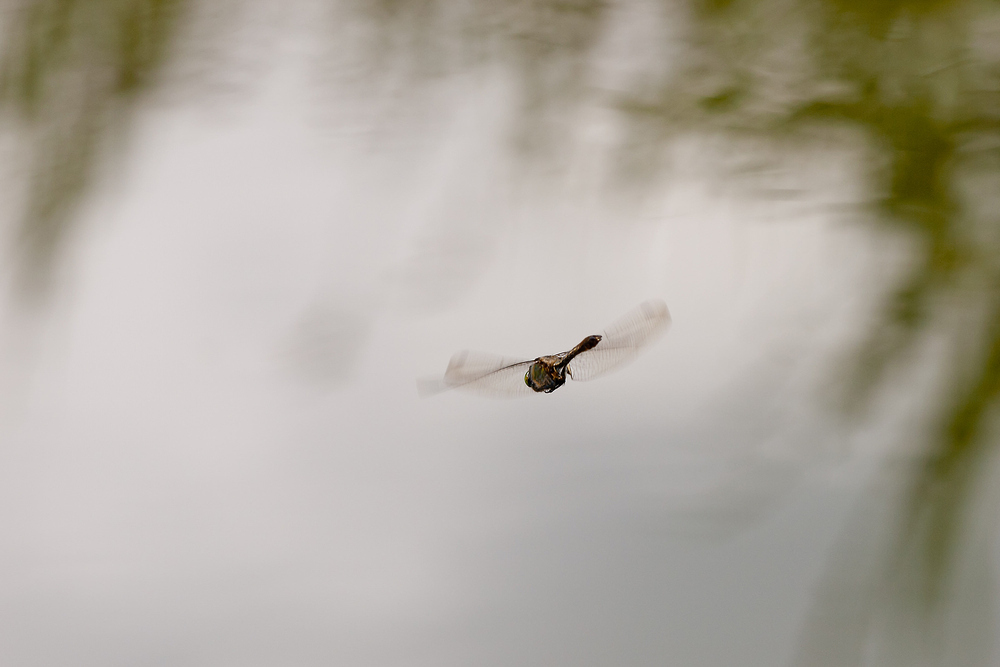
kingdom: Animalia
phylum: Arthropoda
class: Insecta
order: Odonata
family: Corduliidae
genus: Cordulia
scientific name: Cordulia aenea
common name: Downy emerald
